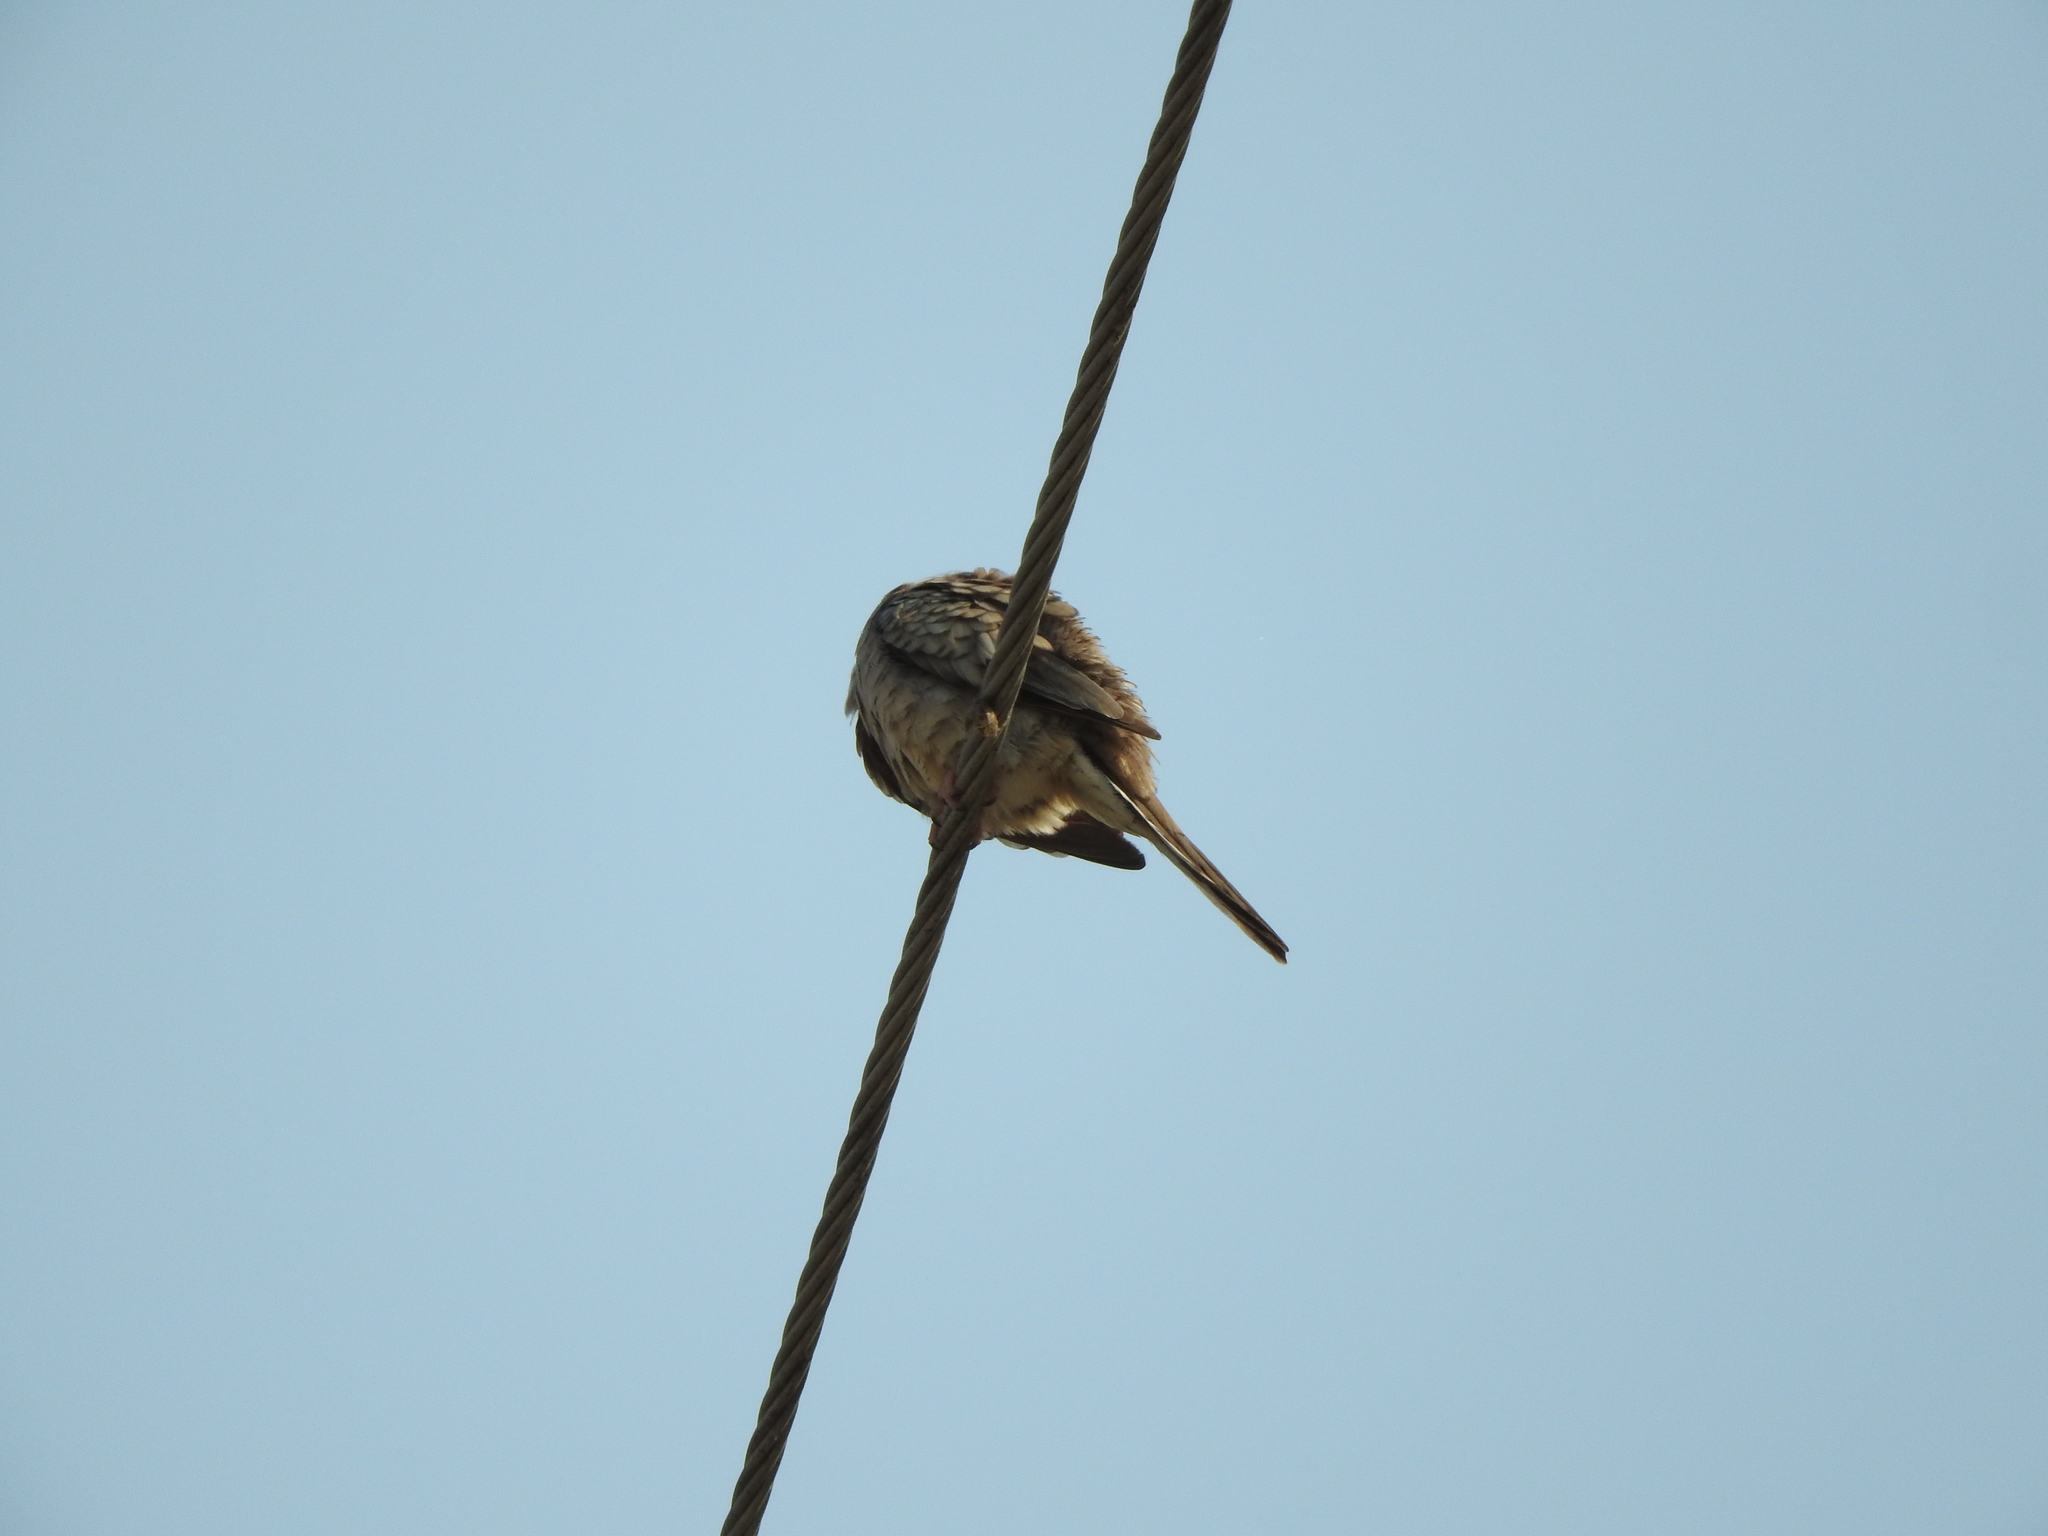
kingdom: Animalia
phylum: Chordata
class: Aves
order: Columbiformes
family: Columbidae
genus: Columbina
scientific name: Columbina inca
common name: Inca dove
